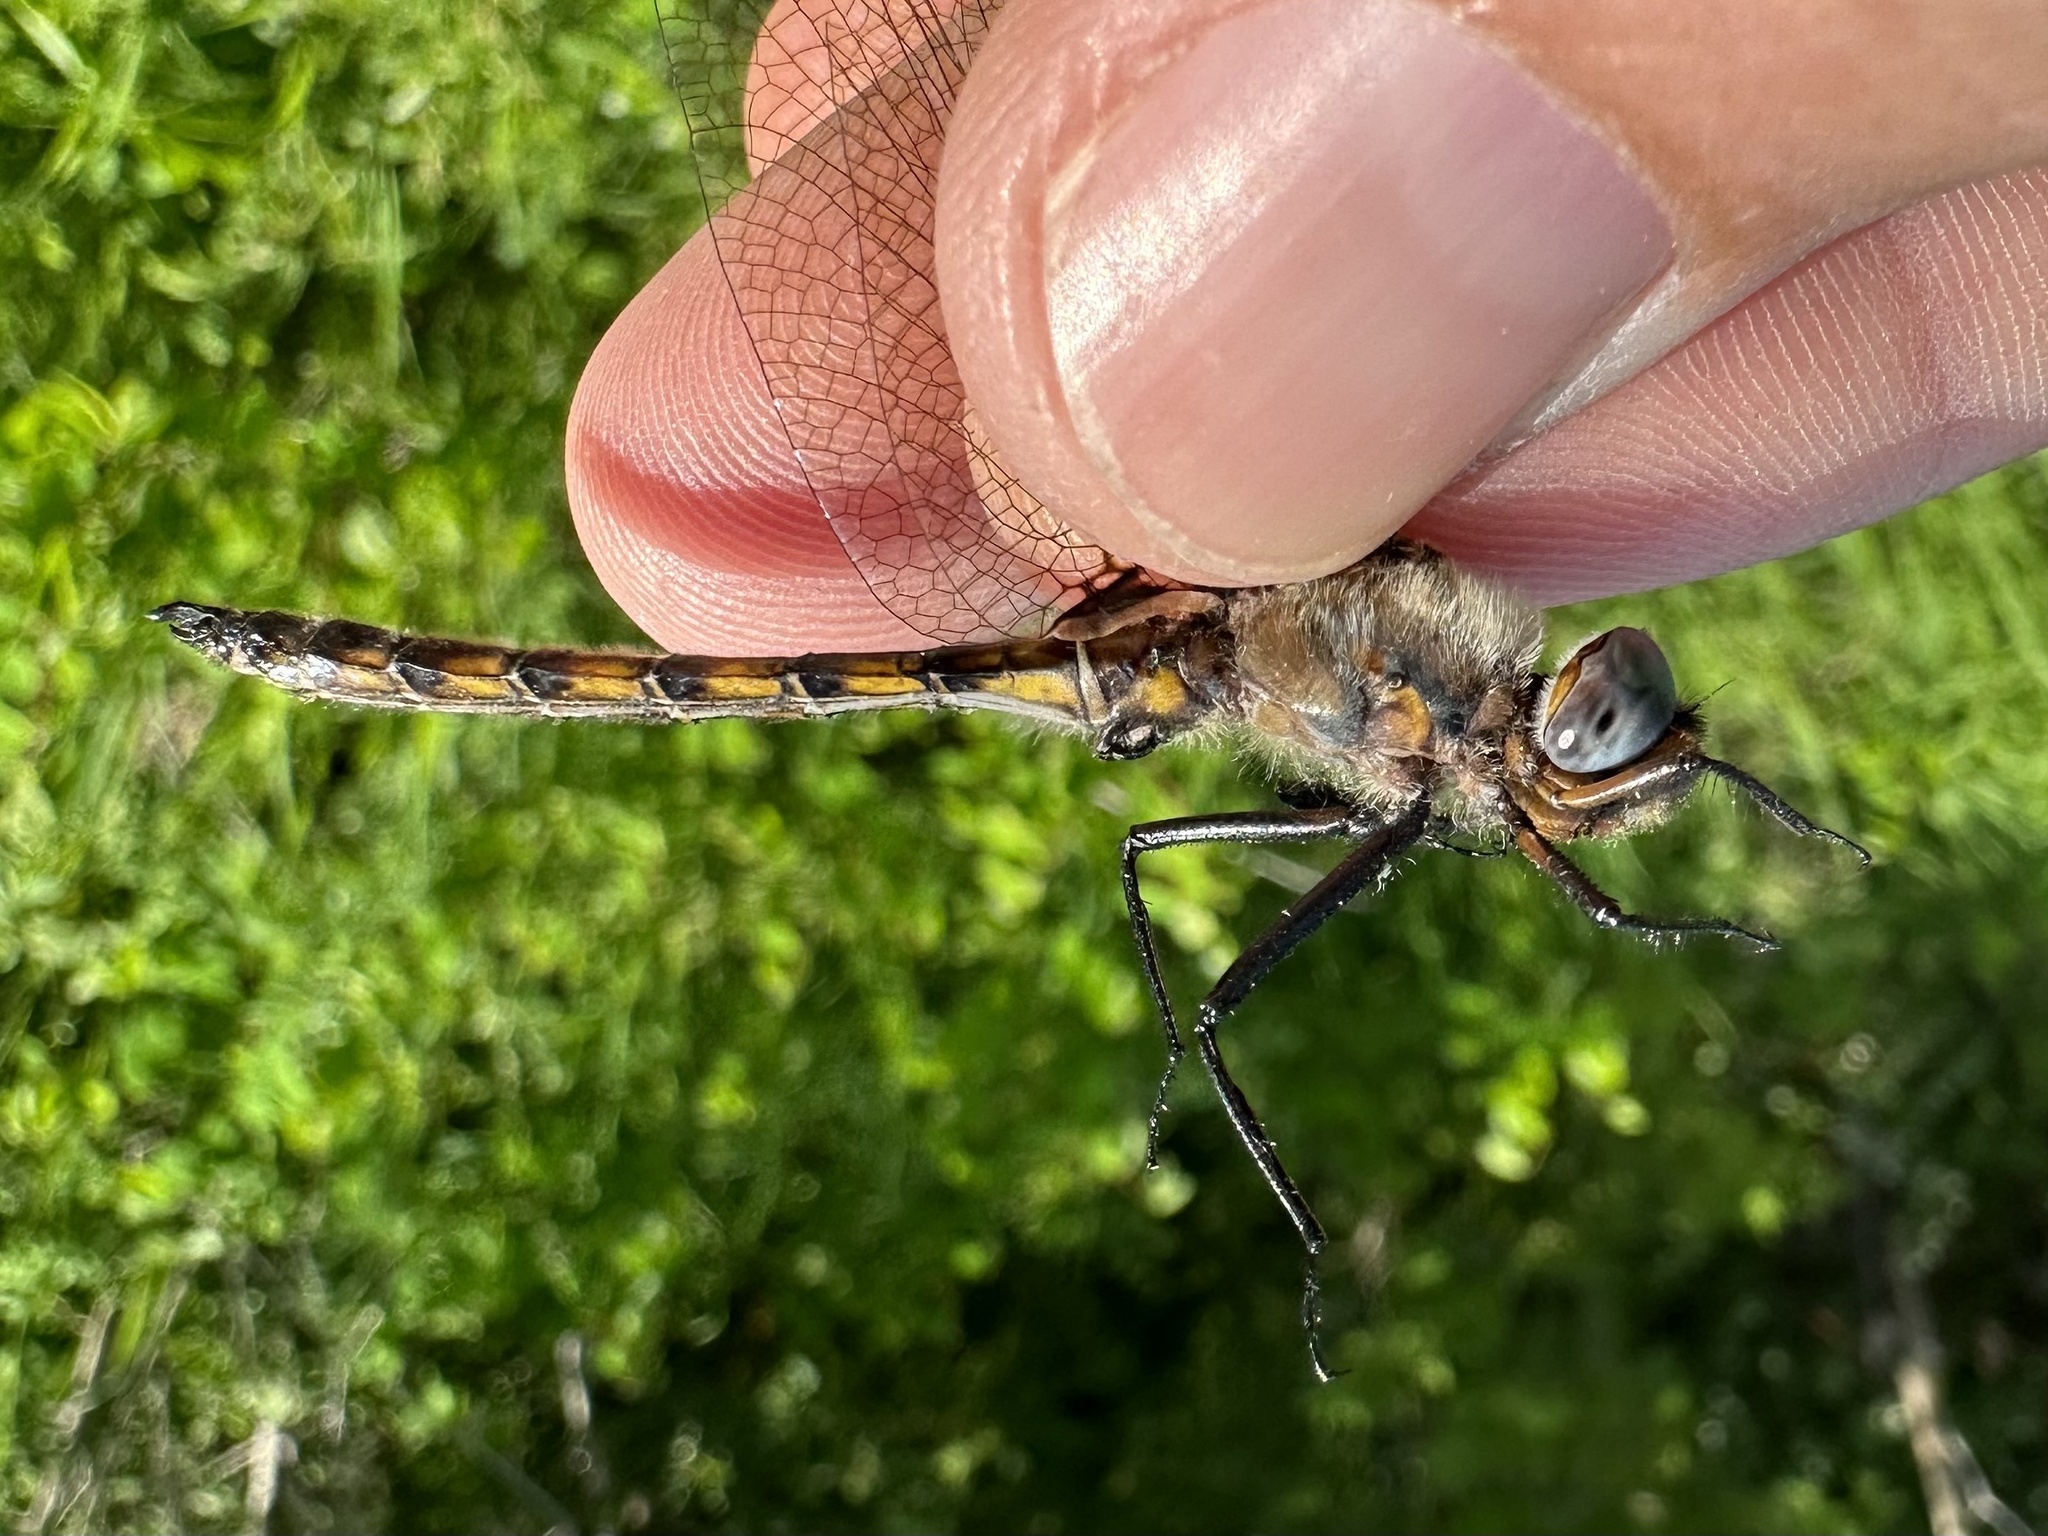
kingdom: Animalia
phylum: Arthropoda
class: Insecta
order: Odonata
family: Corduliidae
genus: Epitheca
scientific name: Epitheca canis
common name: Beaverpond baskettail
